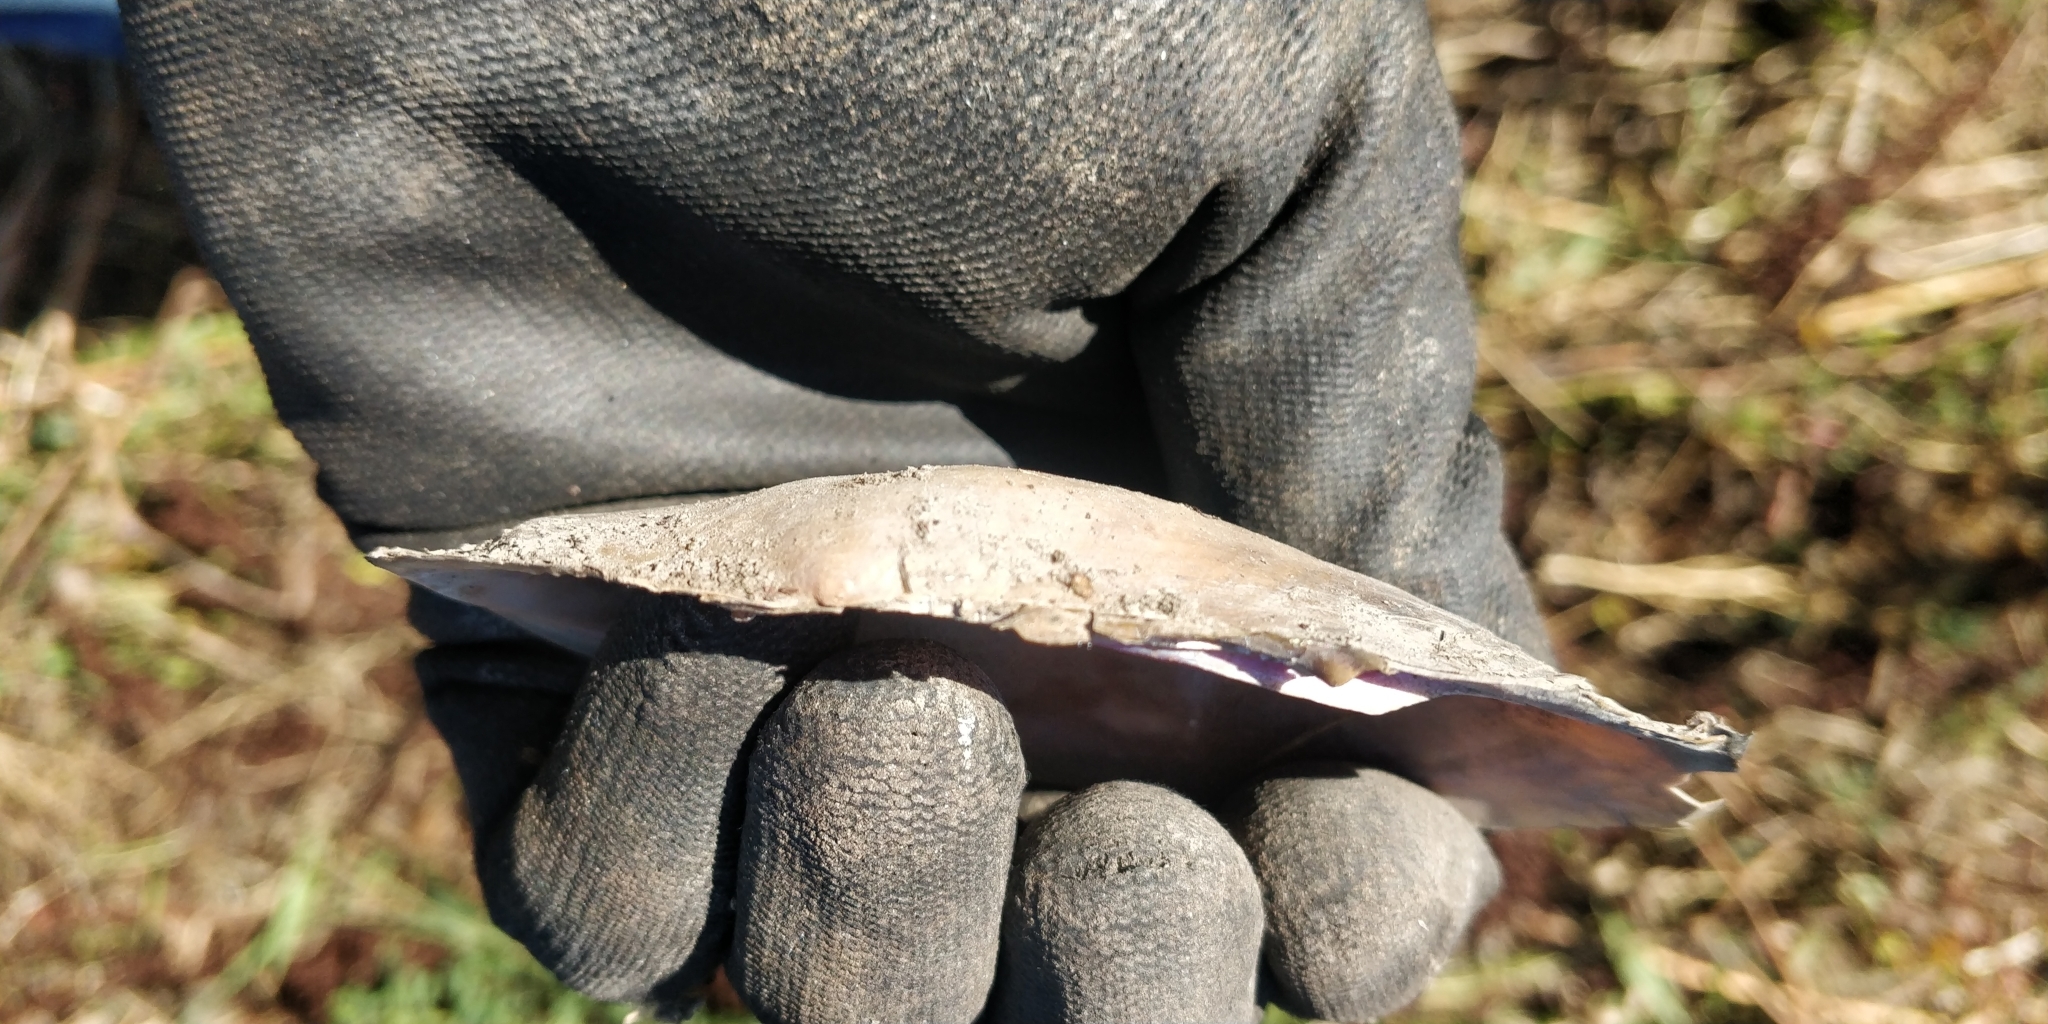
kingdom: Animalia
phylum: Mollusca
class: Bivalvia
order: Unionida
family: Unionidae
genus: Potamilus
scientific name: Potamilus ohiensis
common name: Pink papershell
